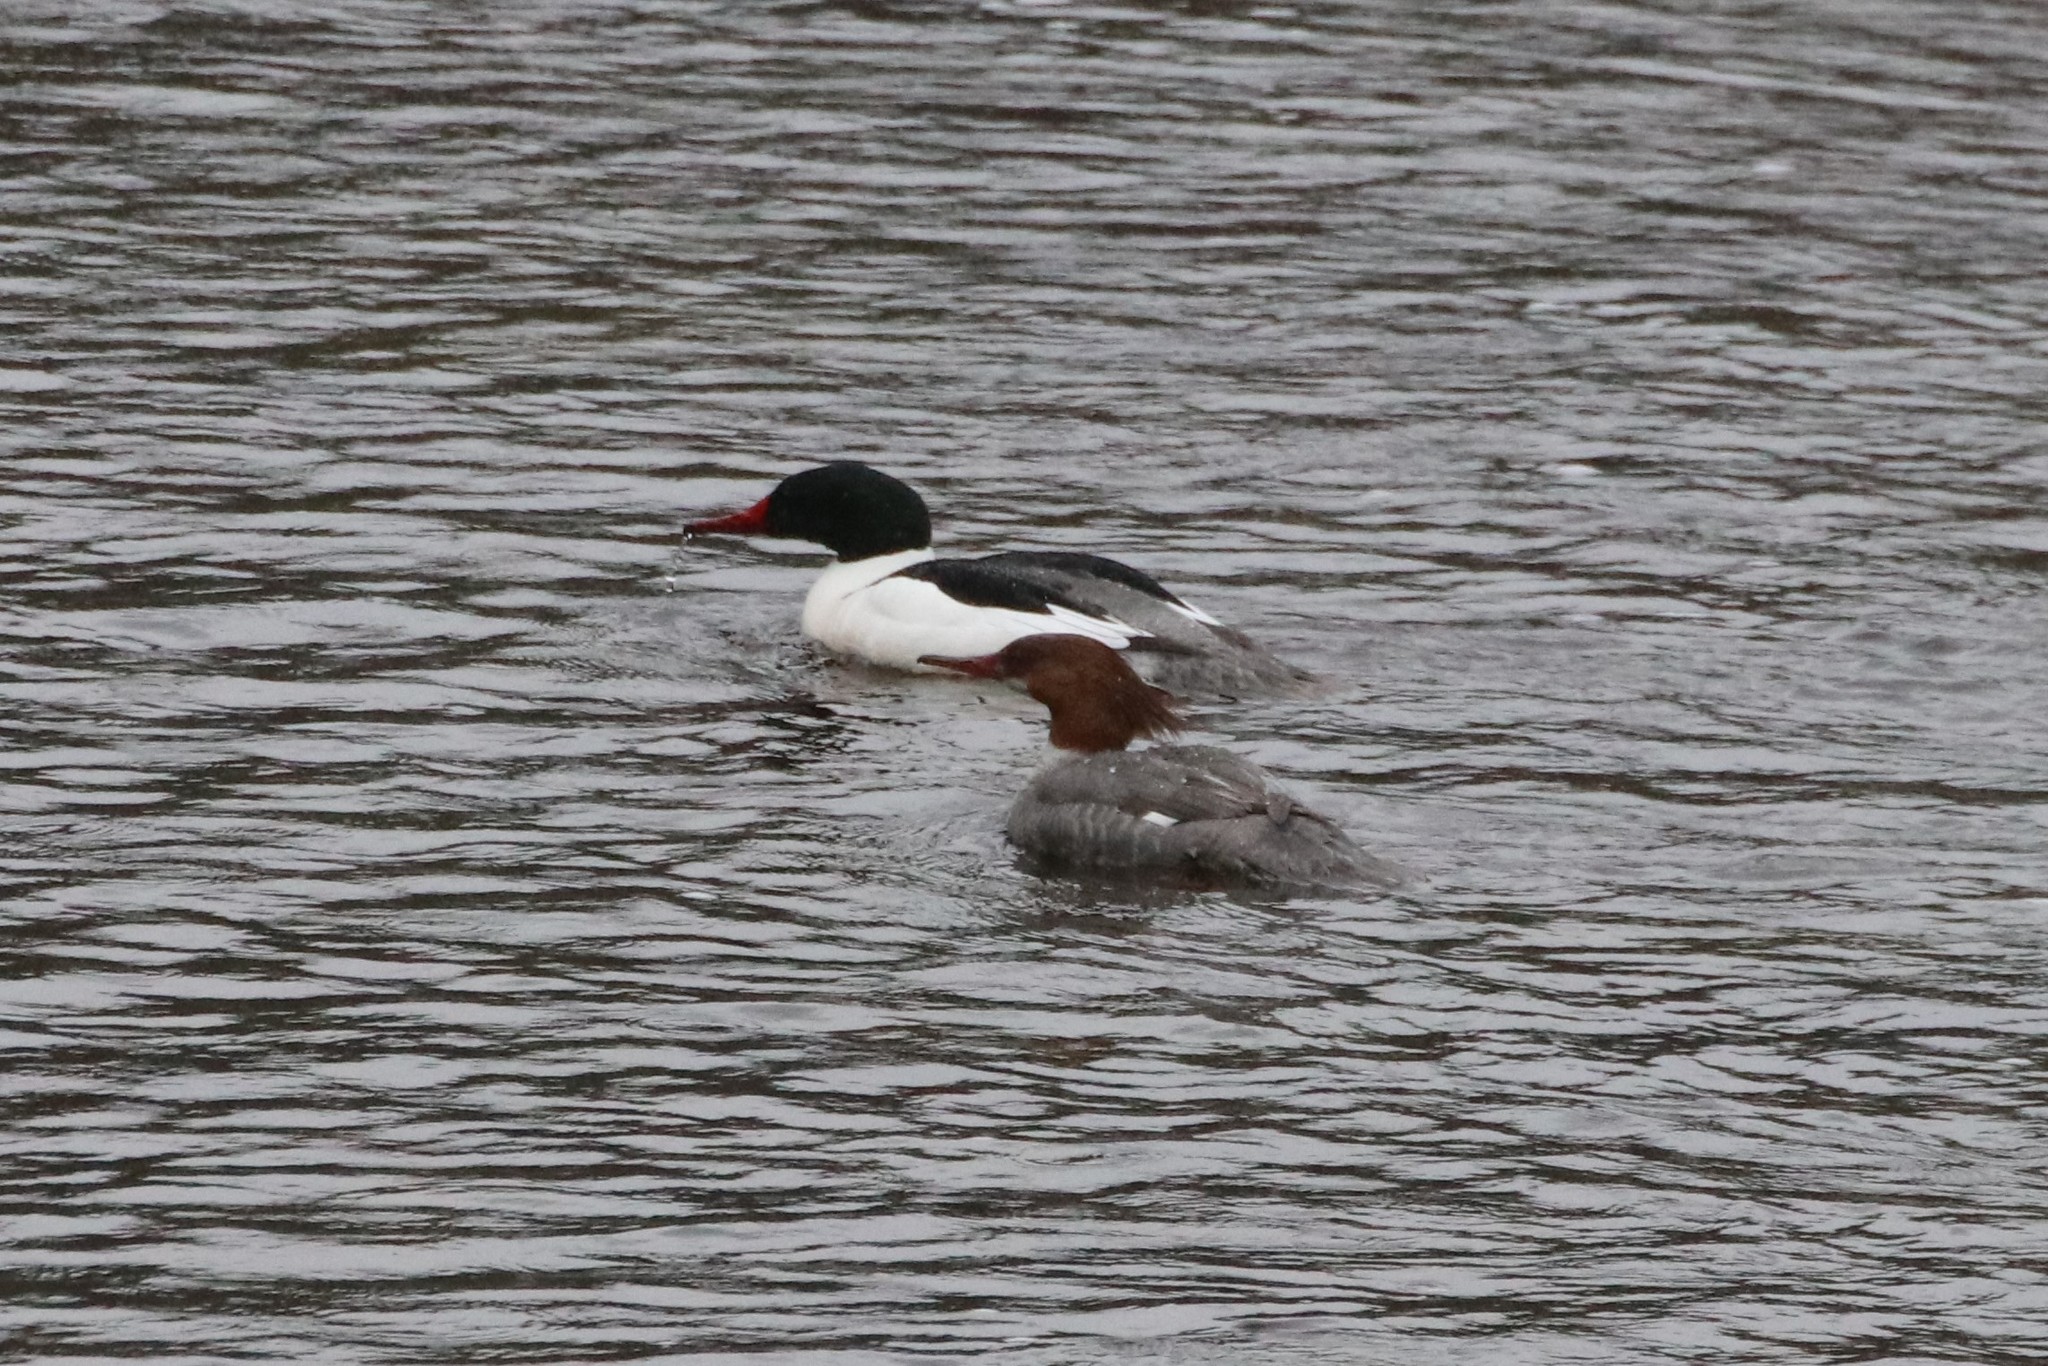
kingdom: Animalia
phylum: Chordata
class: Aves
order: Anseriformes
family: Anatidae
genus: Mergus
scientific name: Mergus merganser
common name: Common merganser
